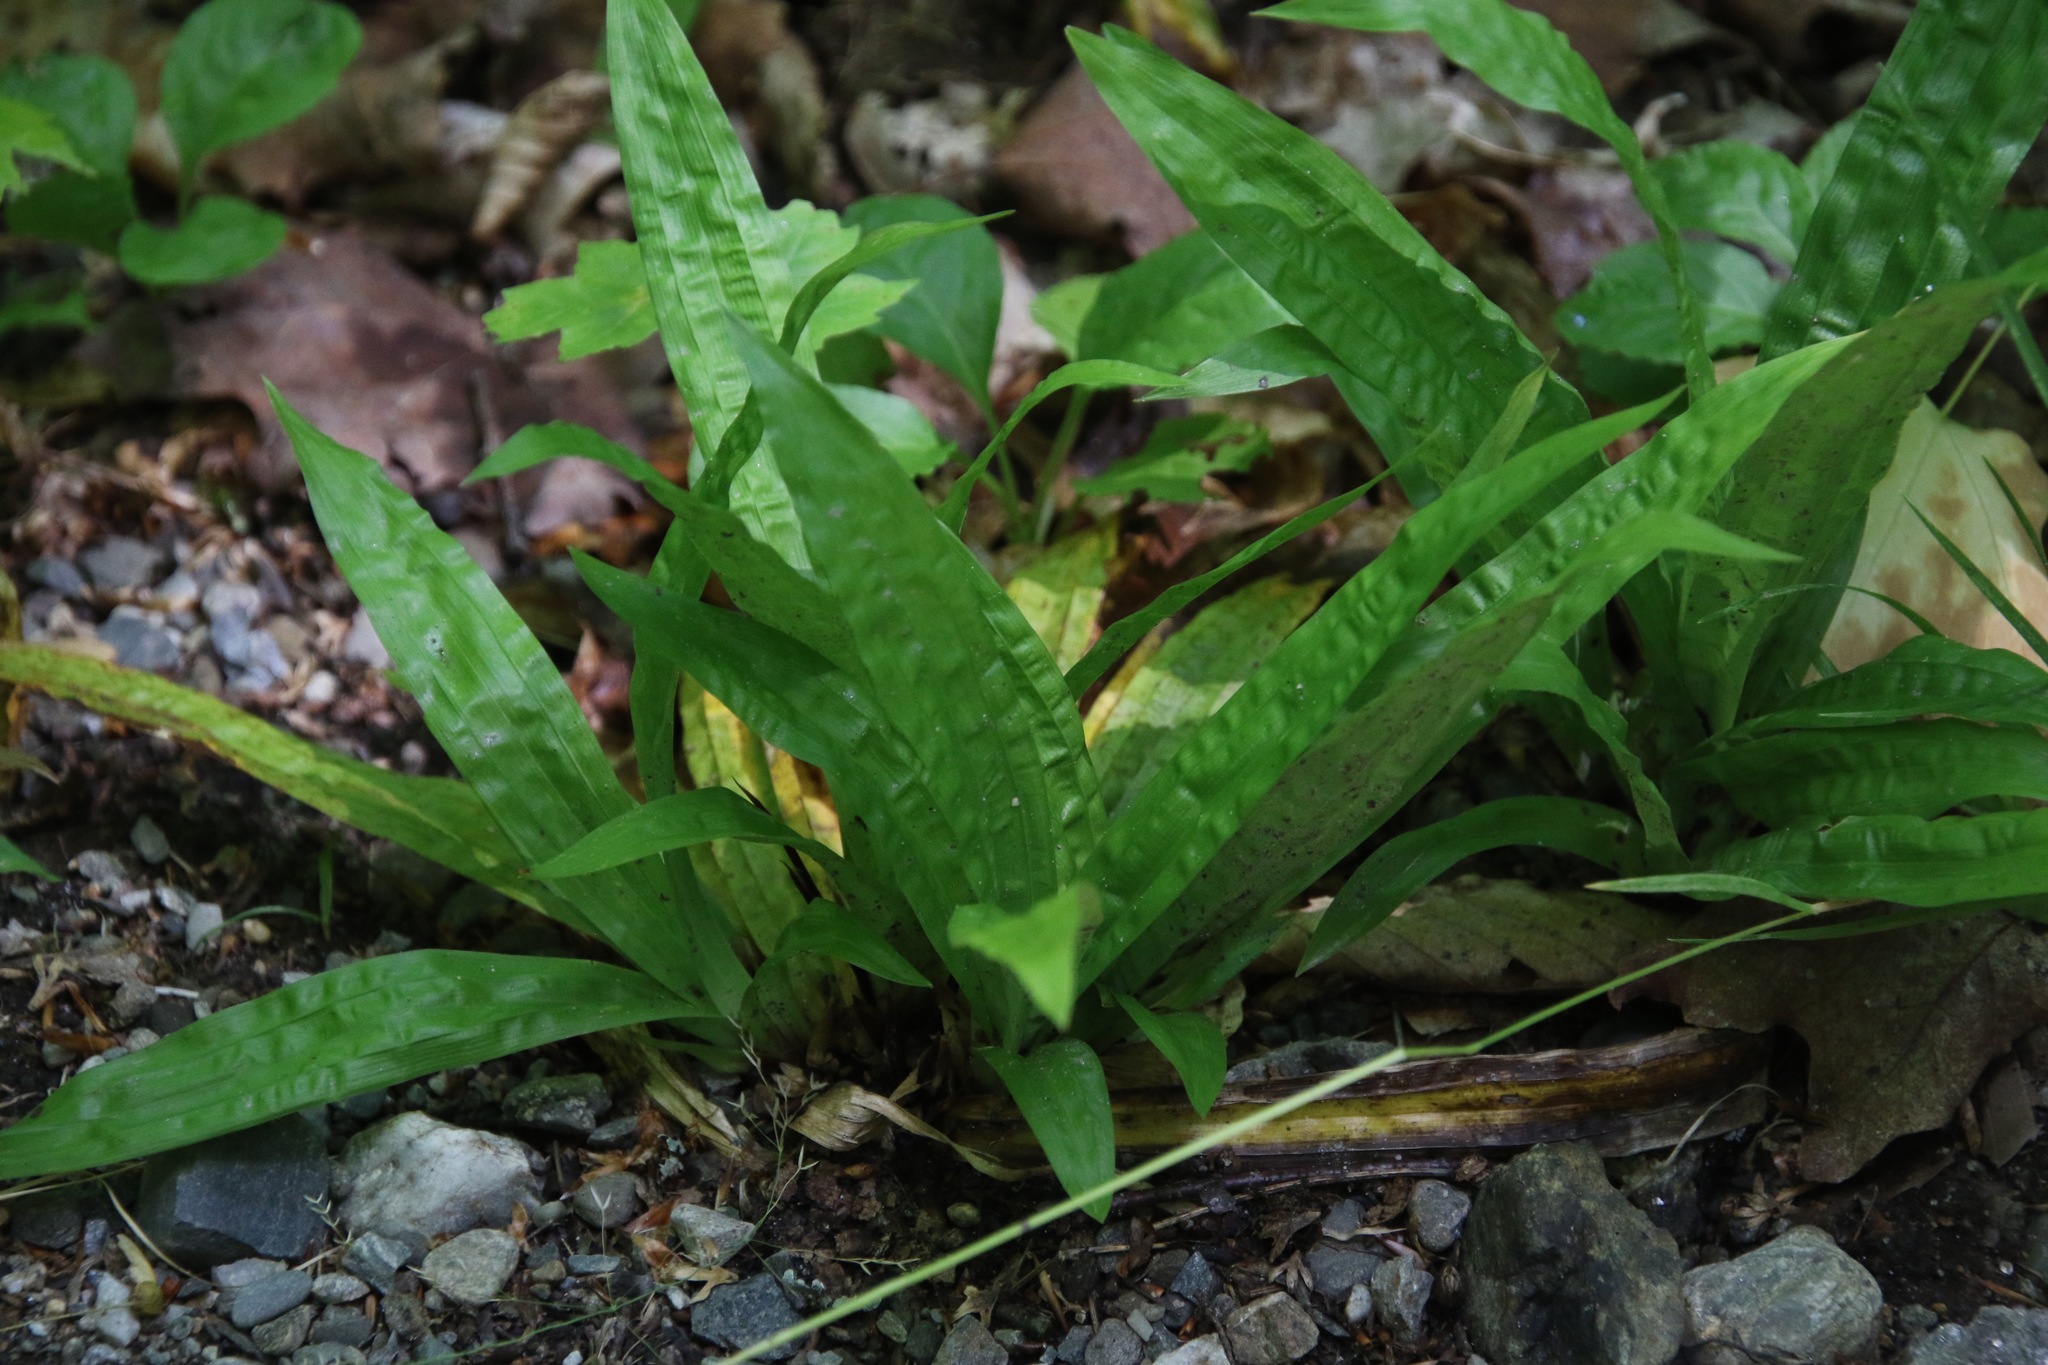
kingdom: Plantae
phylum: Tracheophyta
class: Liliopsida
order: Poales
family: Cyperaceae
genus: Carex
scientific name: Carex plantaginea
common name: Plantain-leaved sedge
